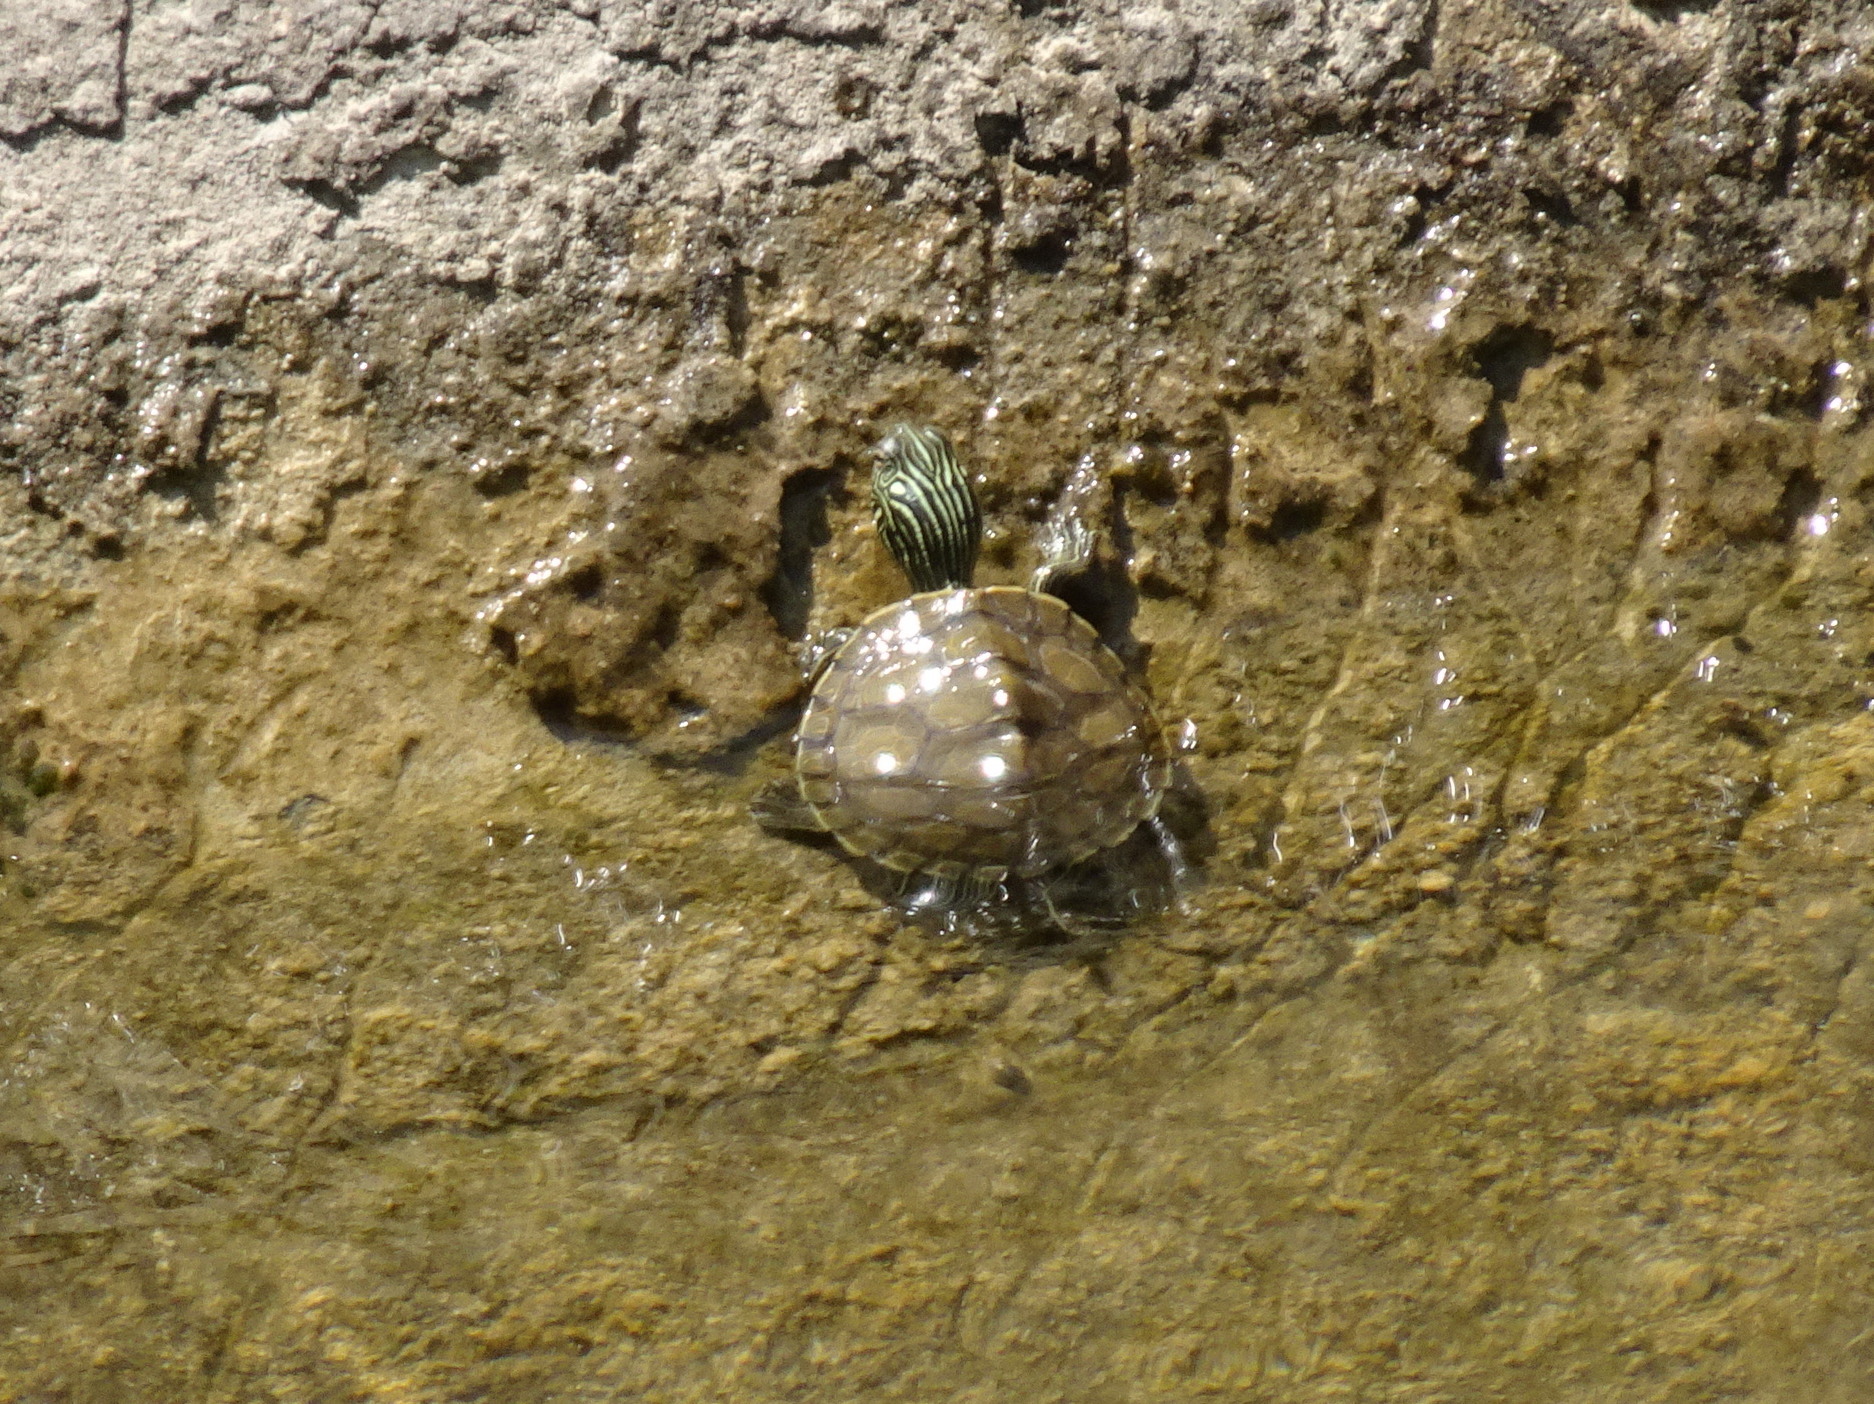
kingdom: Animalia
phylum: Chordata
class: Testudines
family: Emydidae
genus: Graptemys
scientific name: Graptemys geographica
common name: Common map turtle
